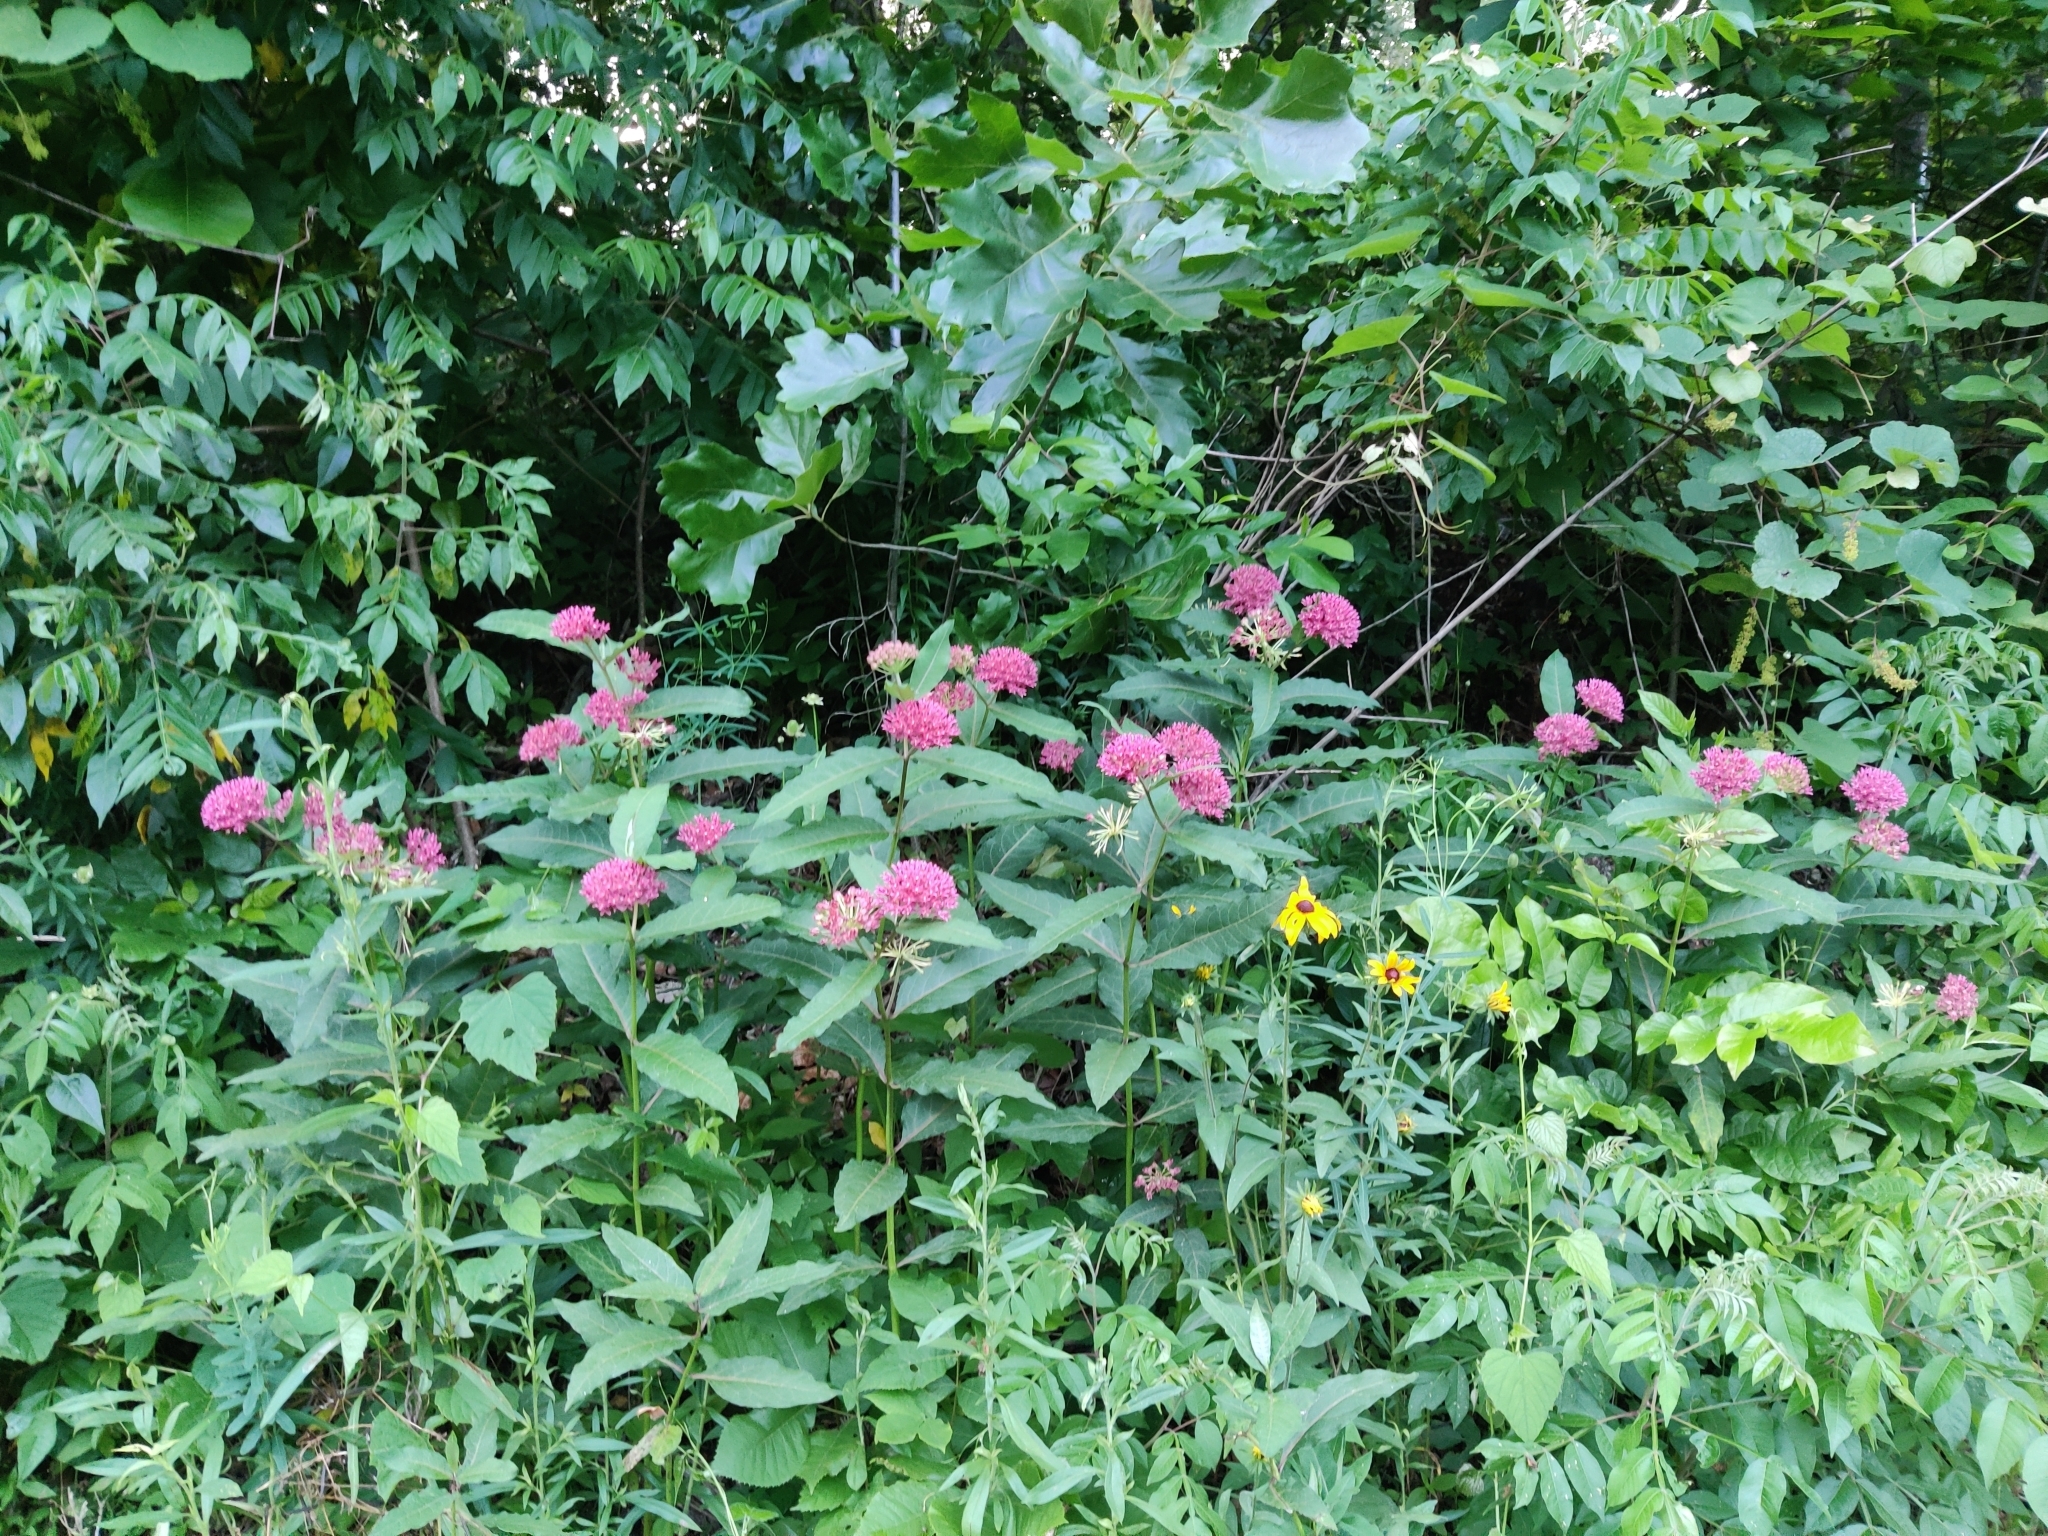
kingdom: Plantae
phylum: Tracheophyta
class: Magnoliopsida
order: Gentianales
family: Apocynaceae
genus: Asclepias
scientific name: Asclepias purpurascens
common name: Purple milkweed
